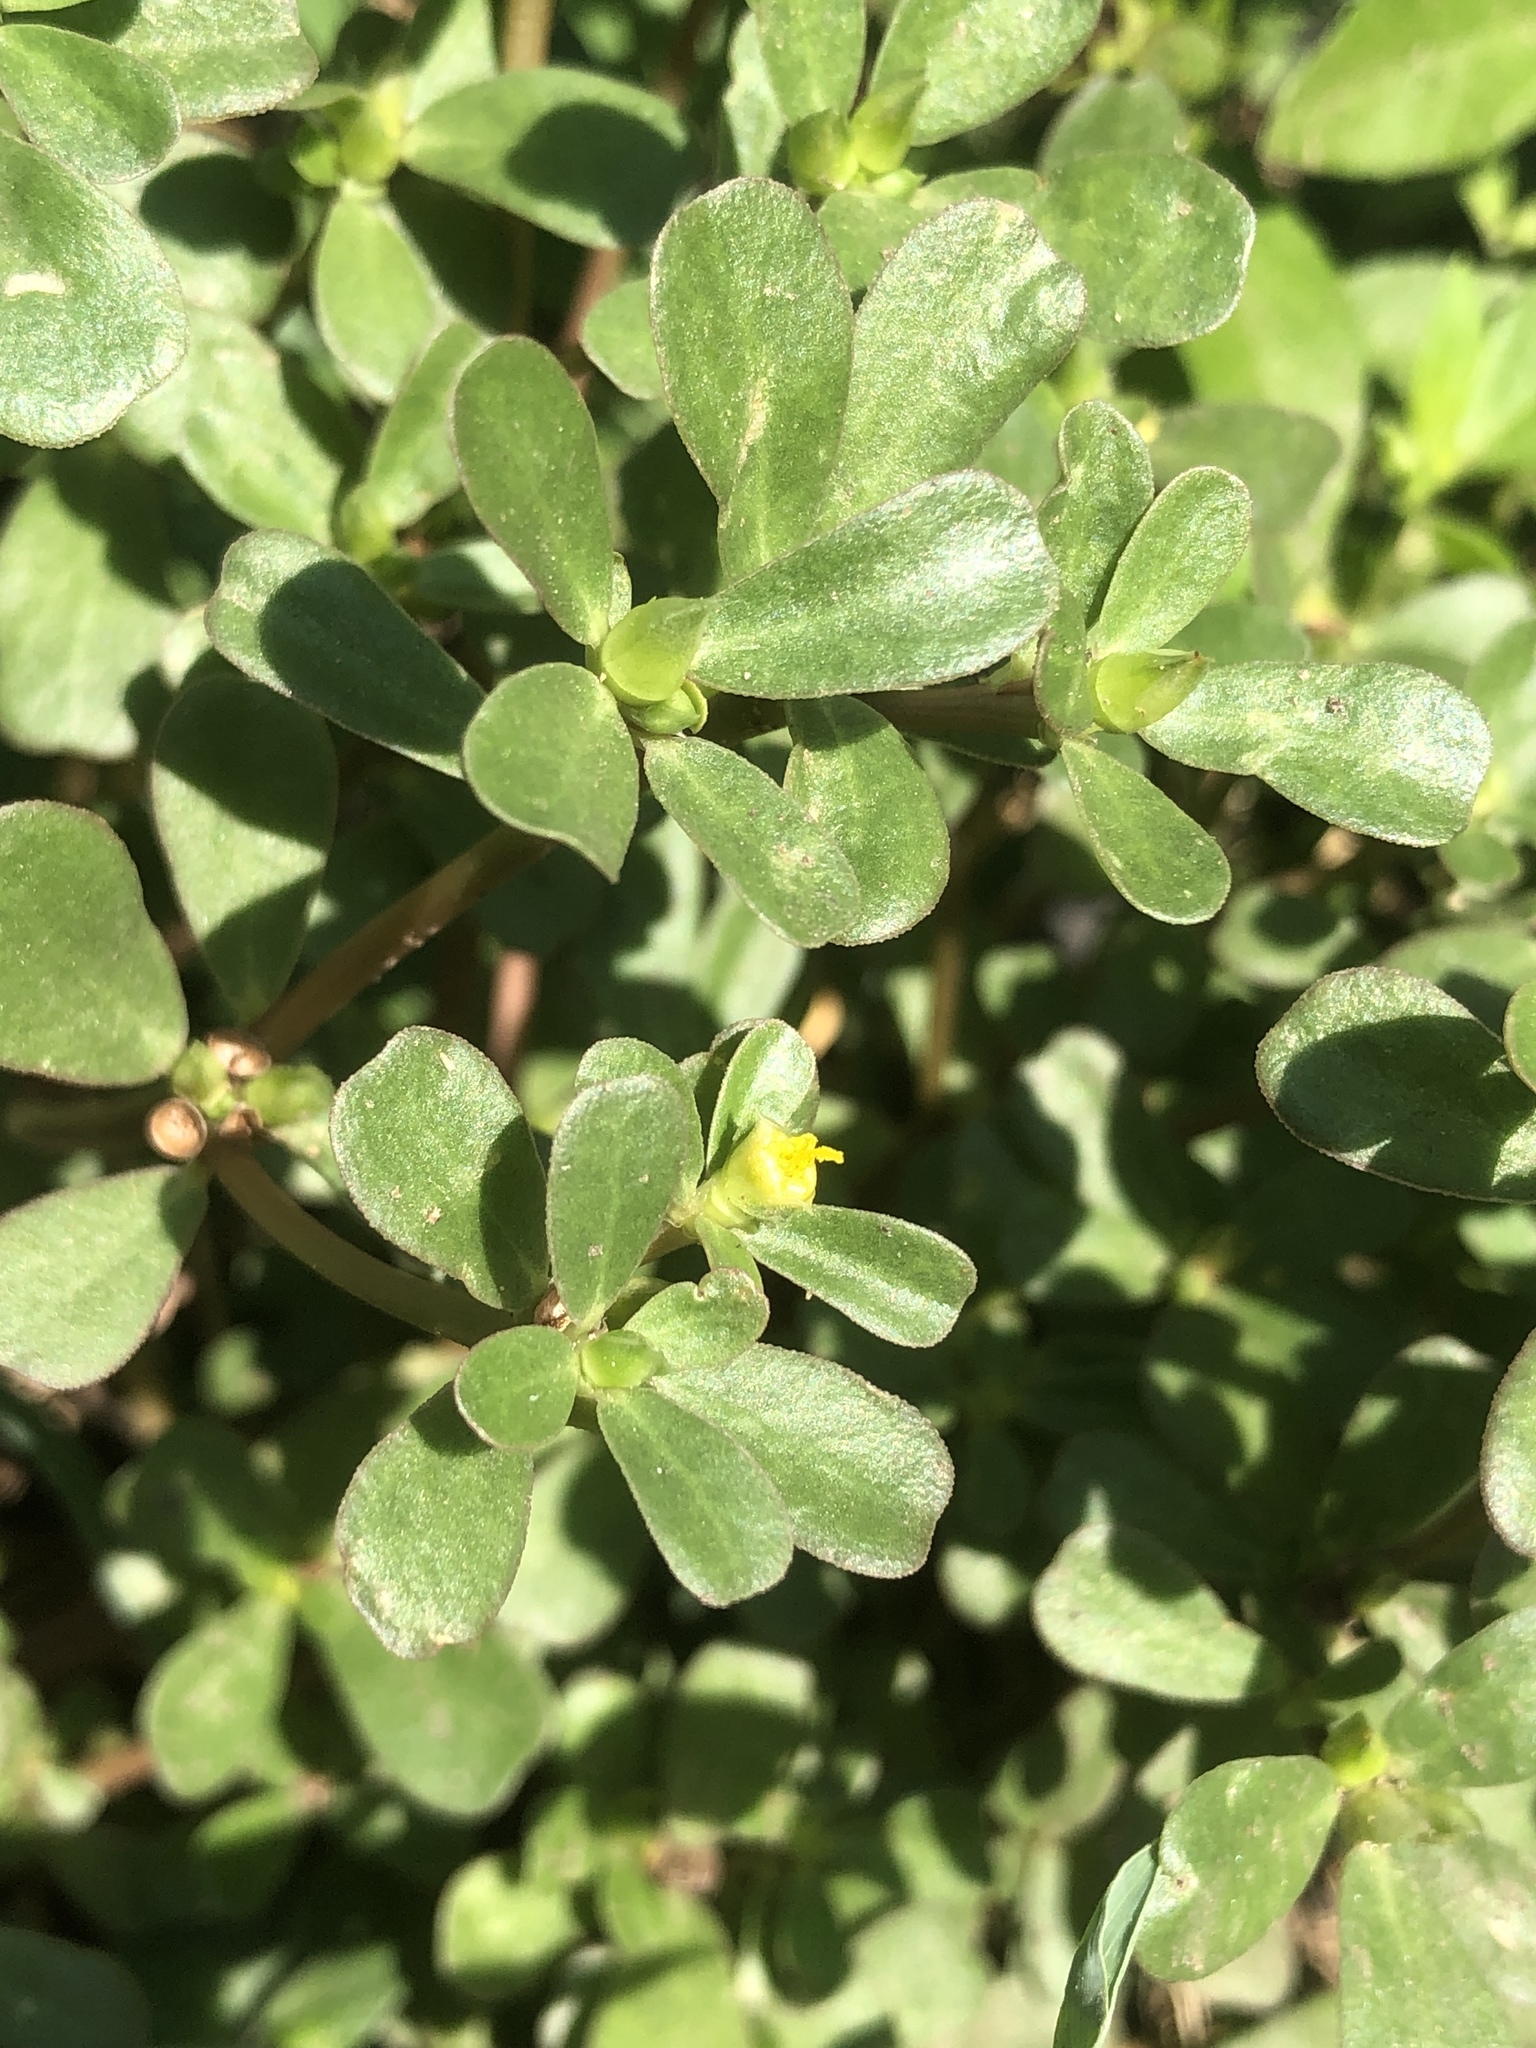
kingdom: Plantae
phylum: Tracheophyta
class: Magnoliopsida
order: Caryophyllales
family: Portulacaceae
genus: Portulaca
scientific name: Portulaca oleracea
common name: Common purslane
